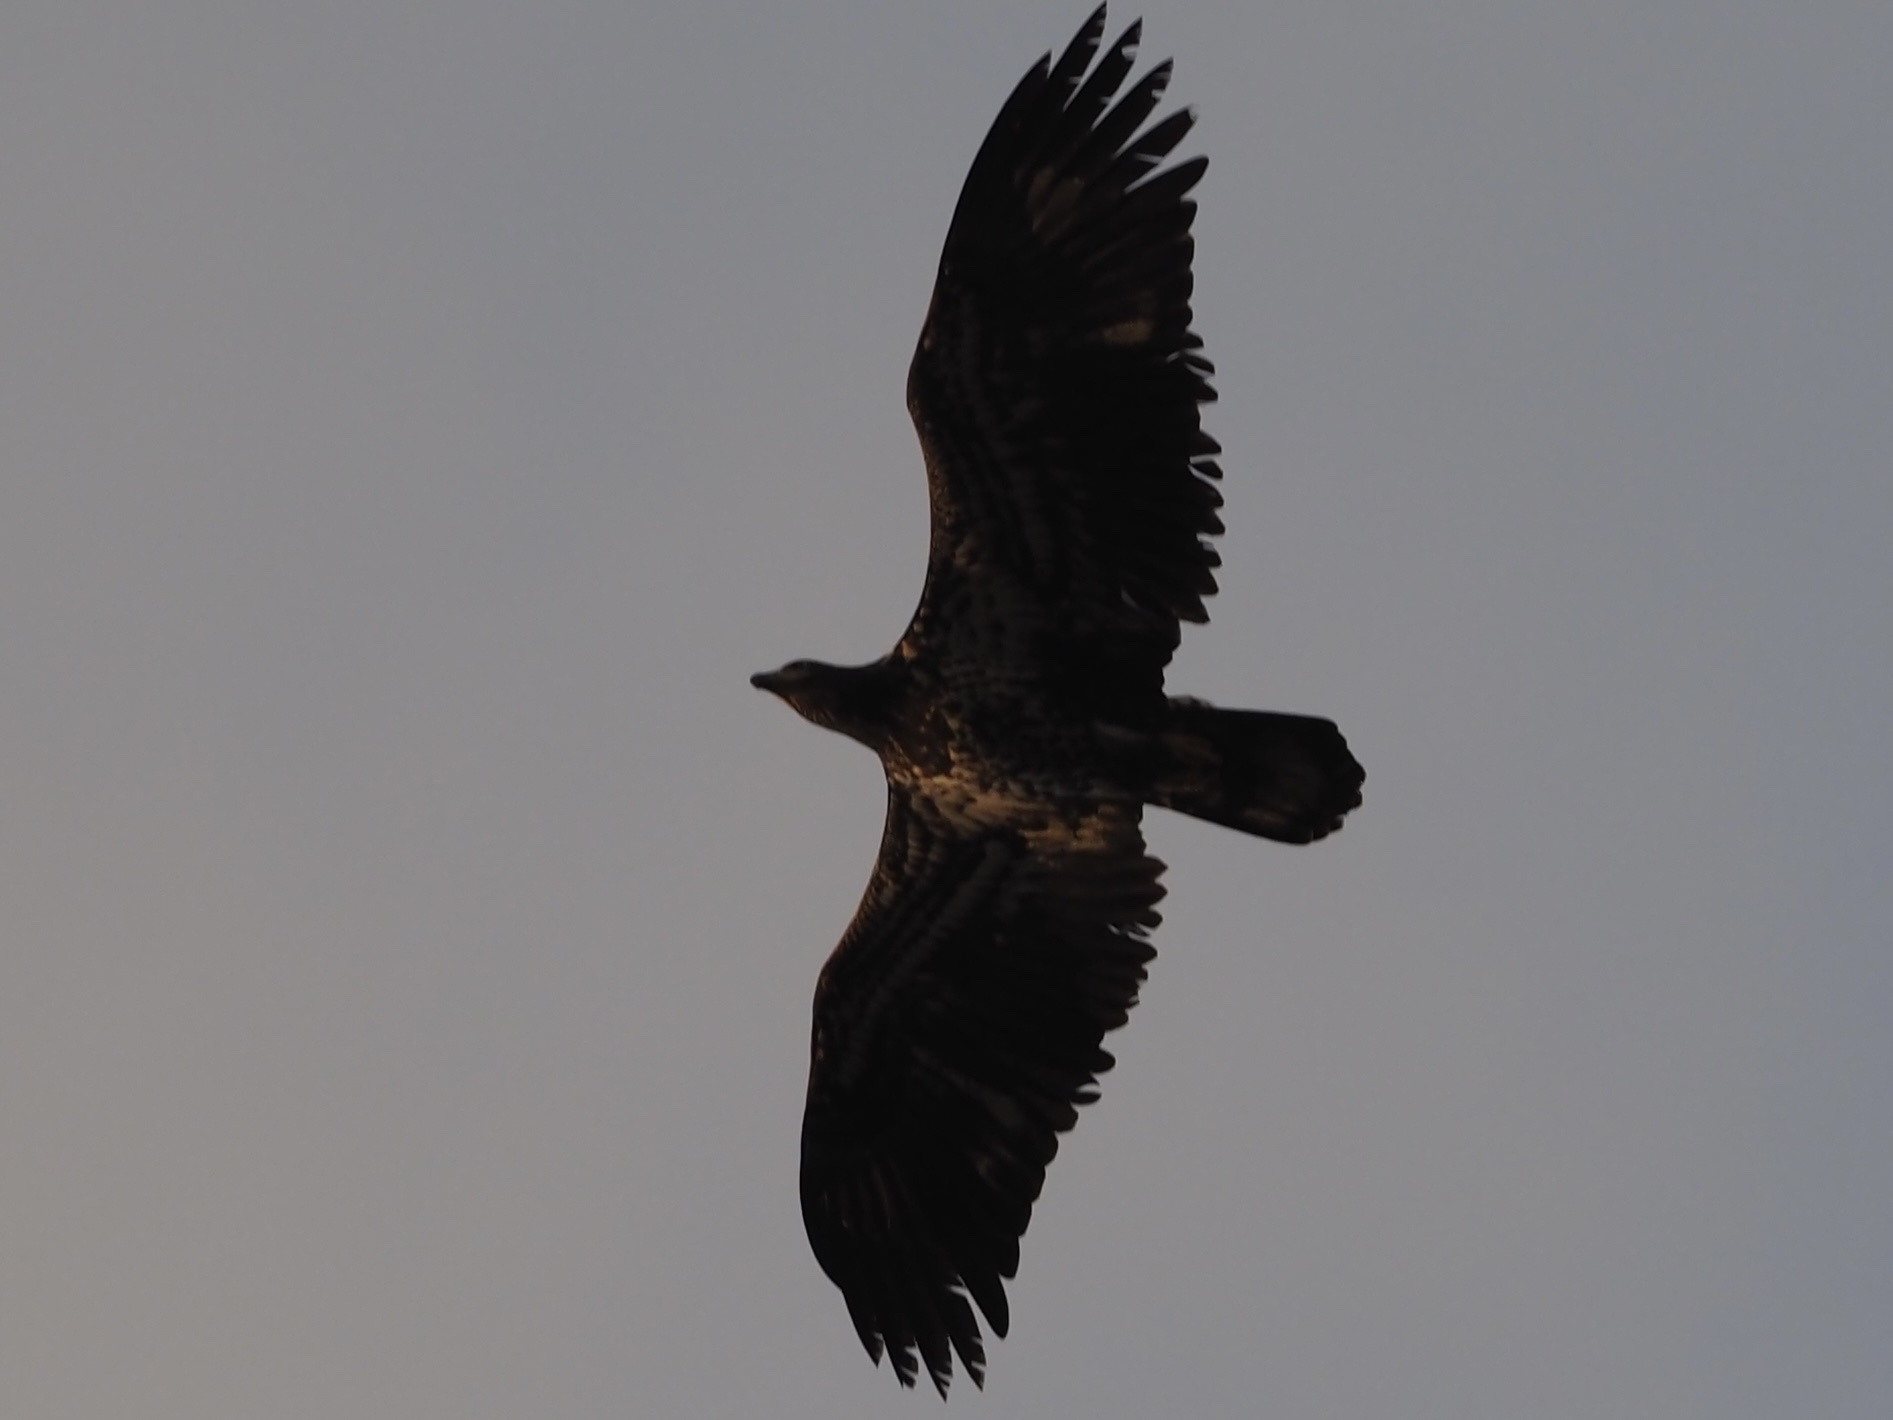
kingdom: Animalia
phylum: Chordata
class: Aves
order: Accipitriformes
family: Accipitridae
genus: Haliaeetus
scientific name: Haliaeetus leucocephalus
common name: Bald eagle
